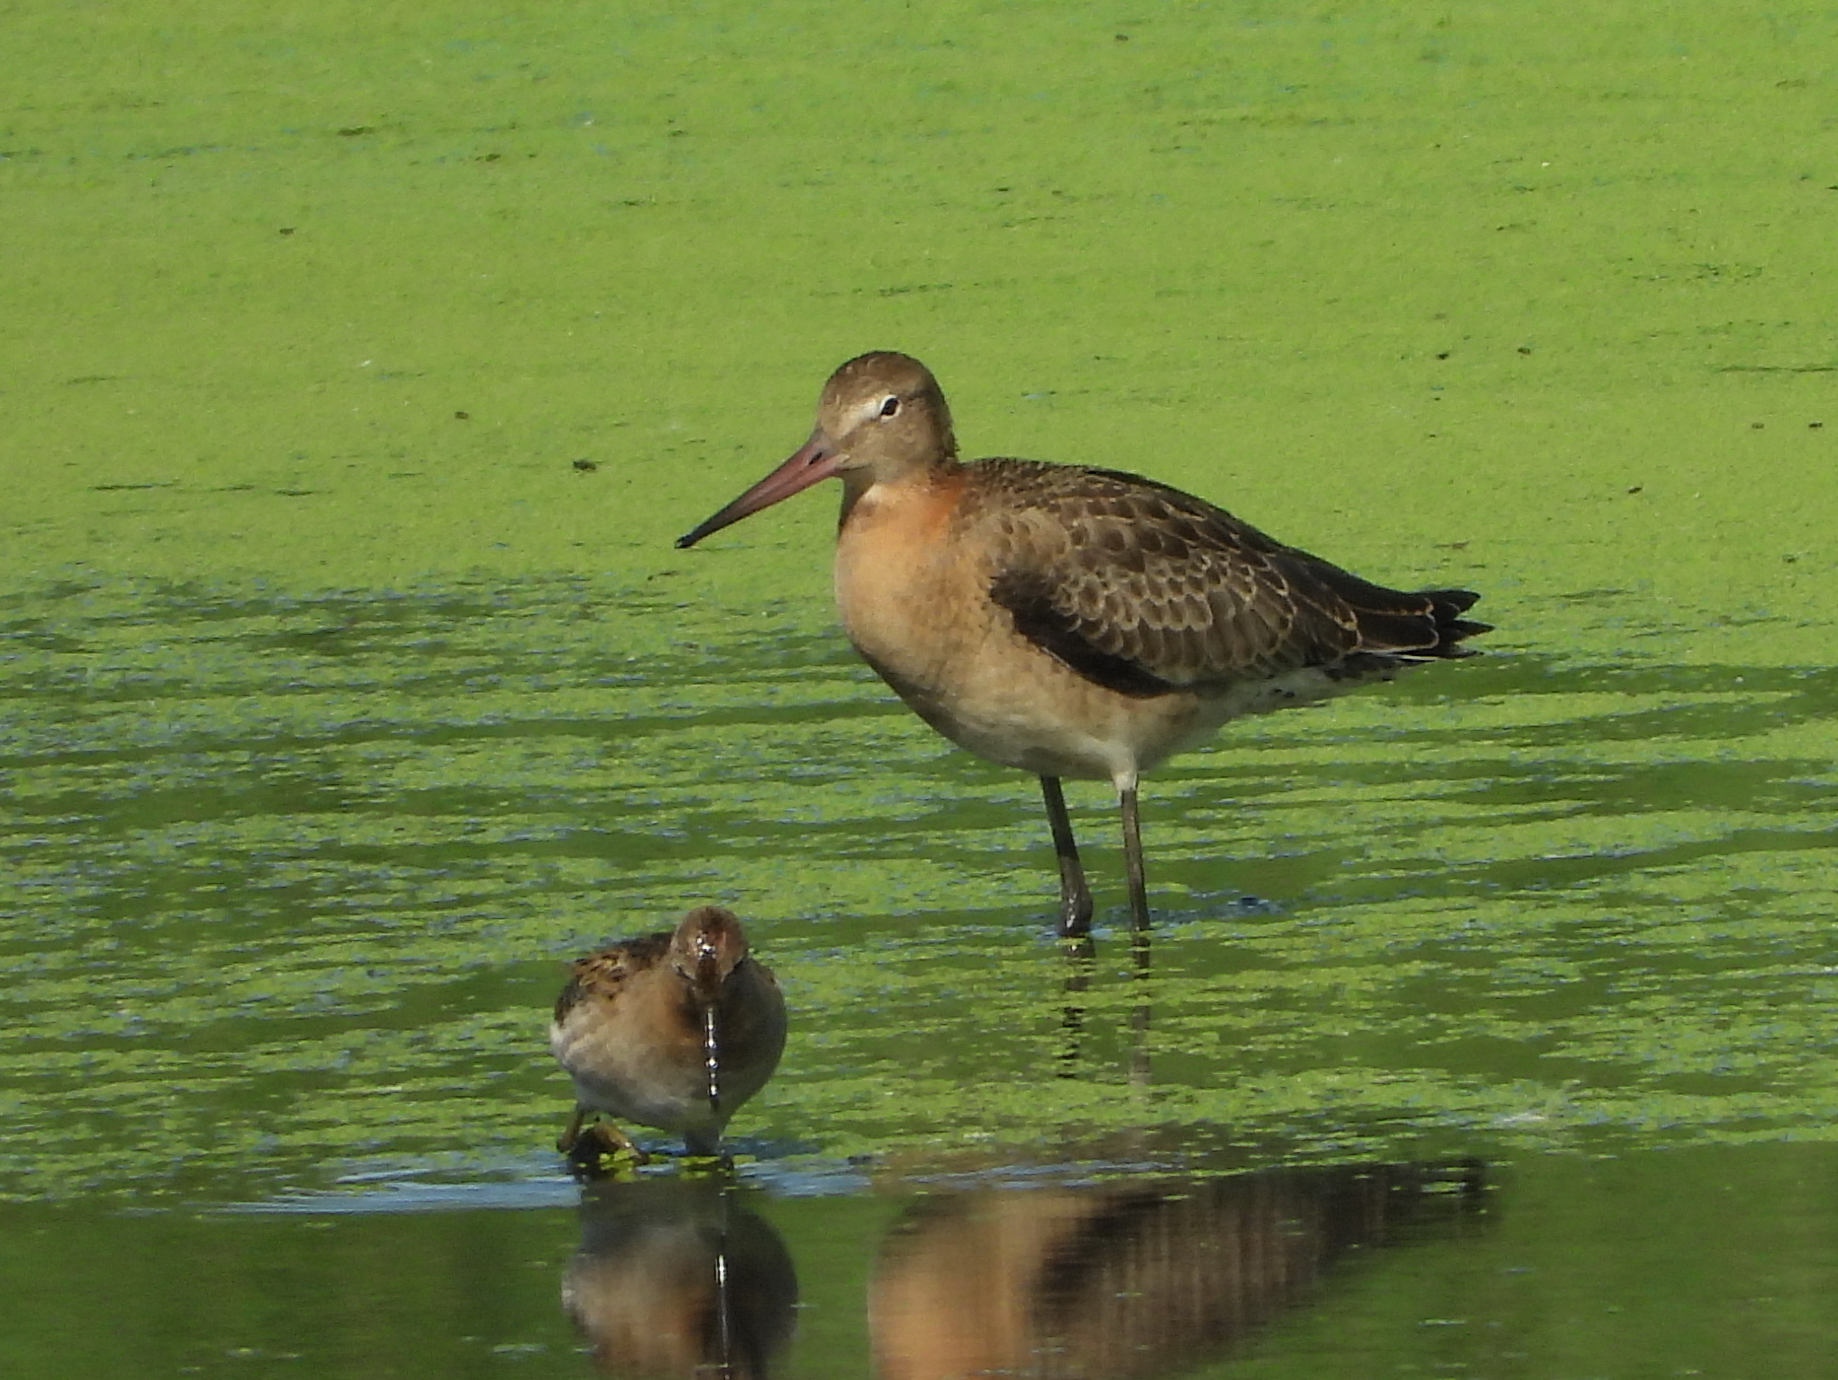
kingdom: Animalia
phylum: Chordata
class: Aves
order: Charadriiformes
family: Scolopacidae
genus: Limosa
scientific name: Limosa limosa
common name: Black-tailed godwit
